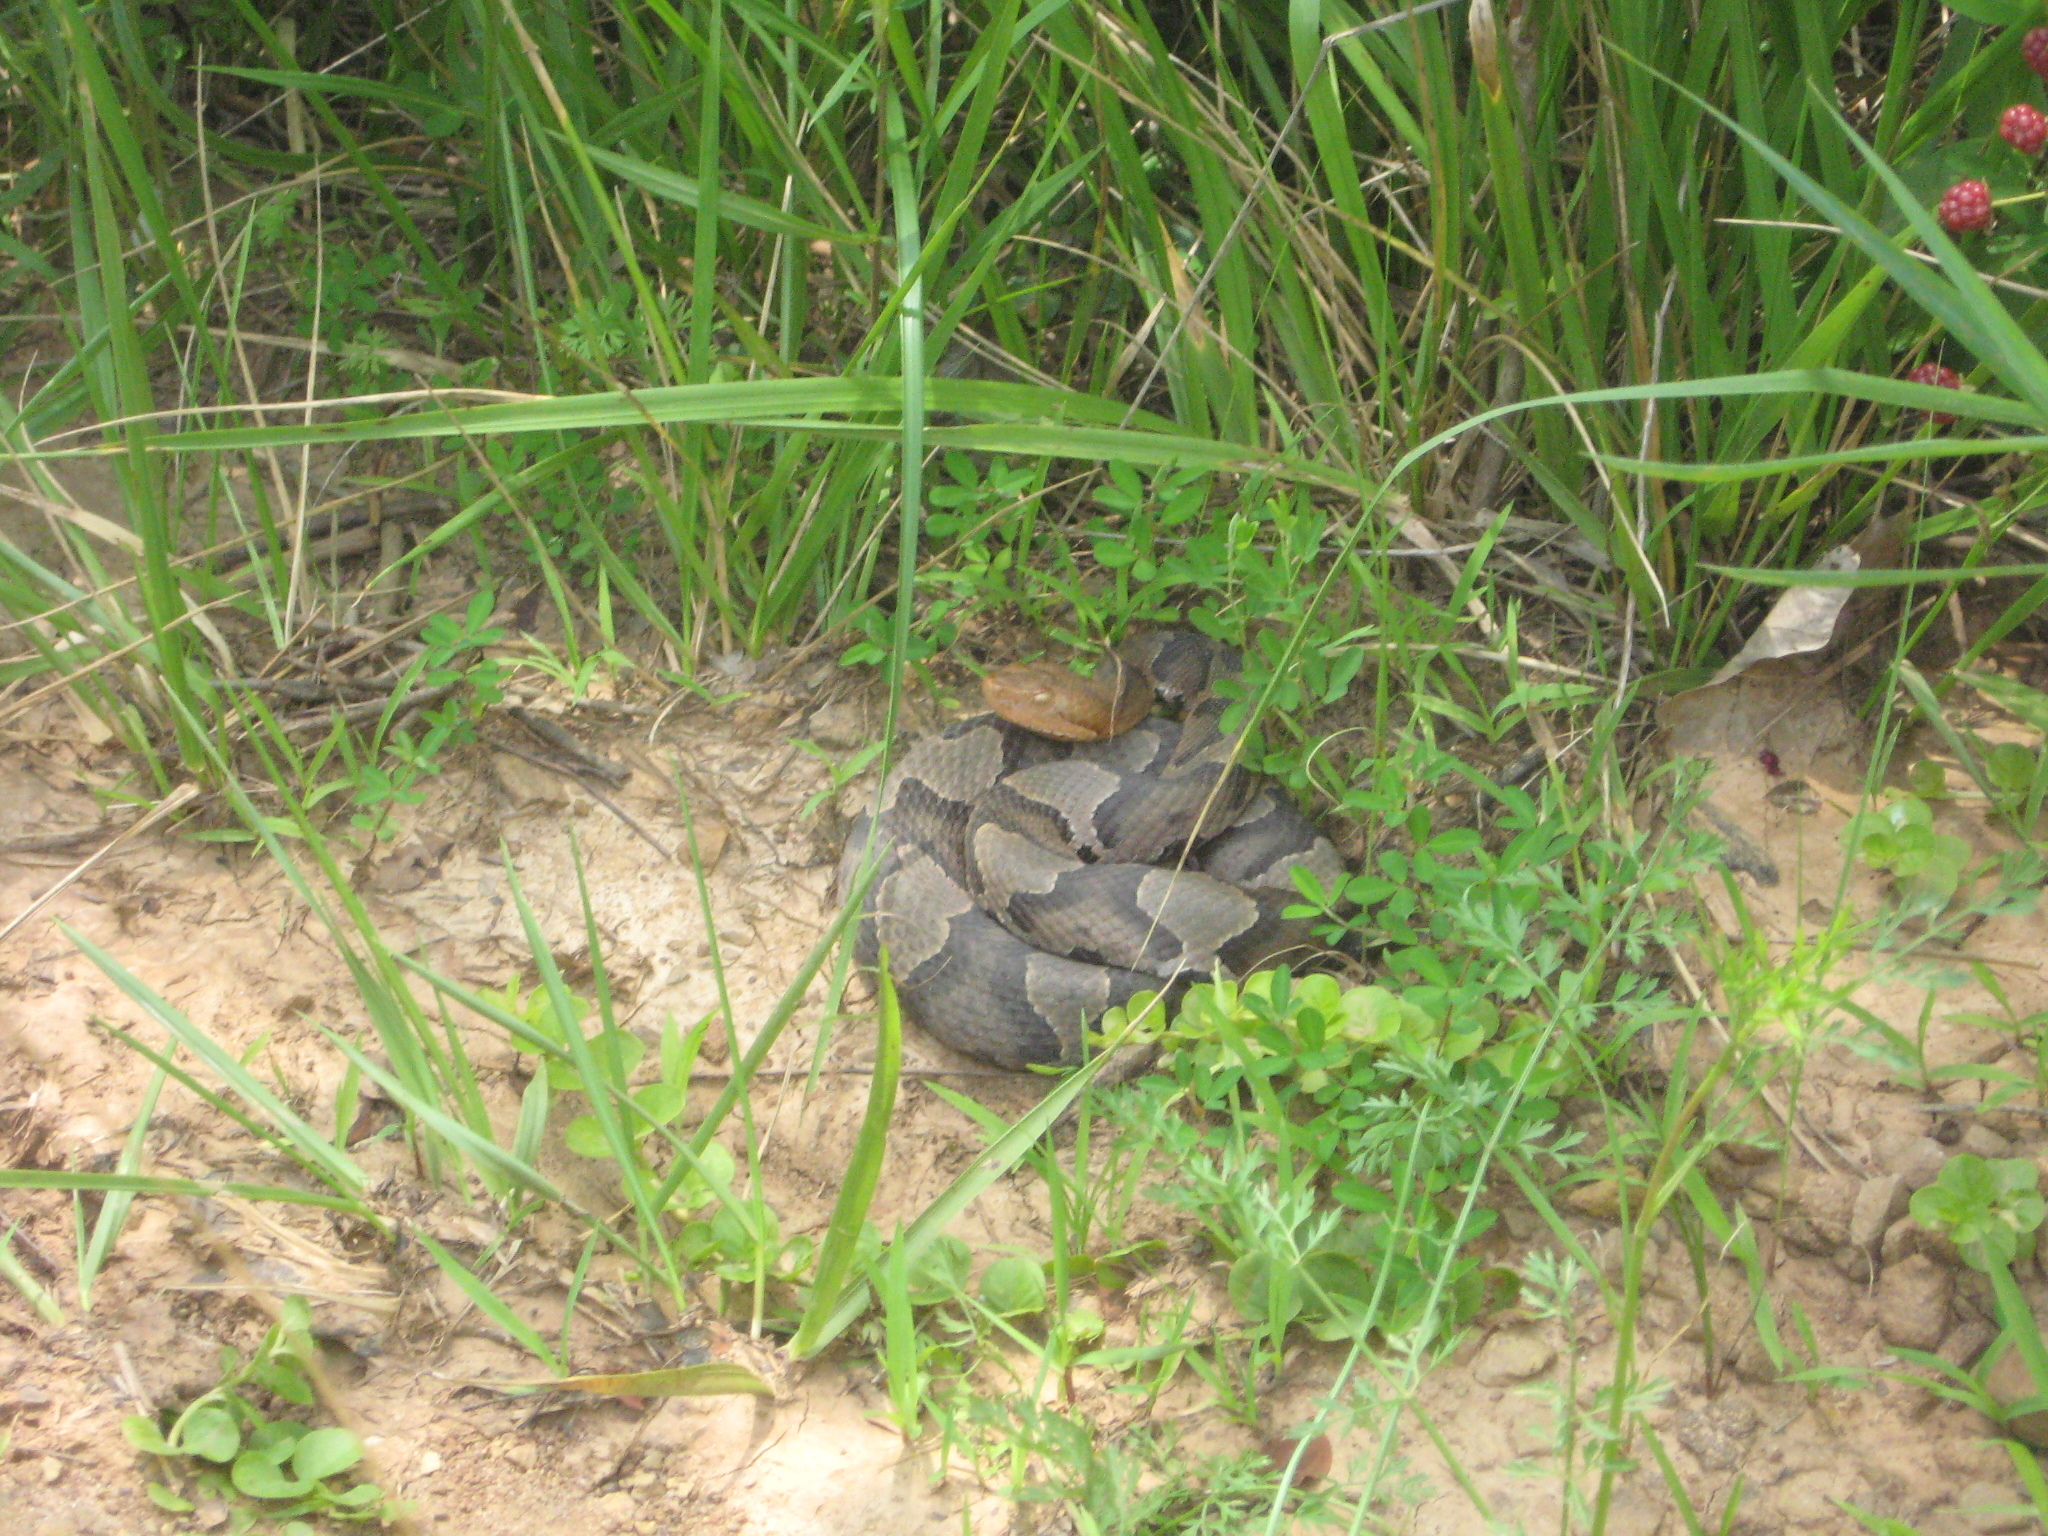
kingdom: Animalia
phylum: Chordata
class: Squamata
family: Viperidae
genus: Agkistrodon
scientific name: Agkistrodon contortrix
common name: Northern copperhead
